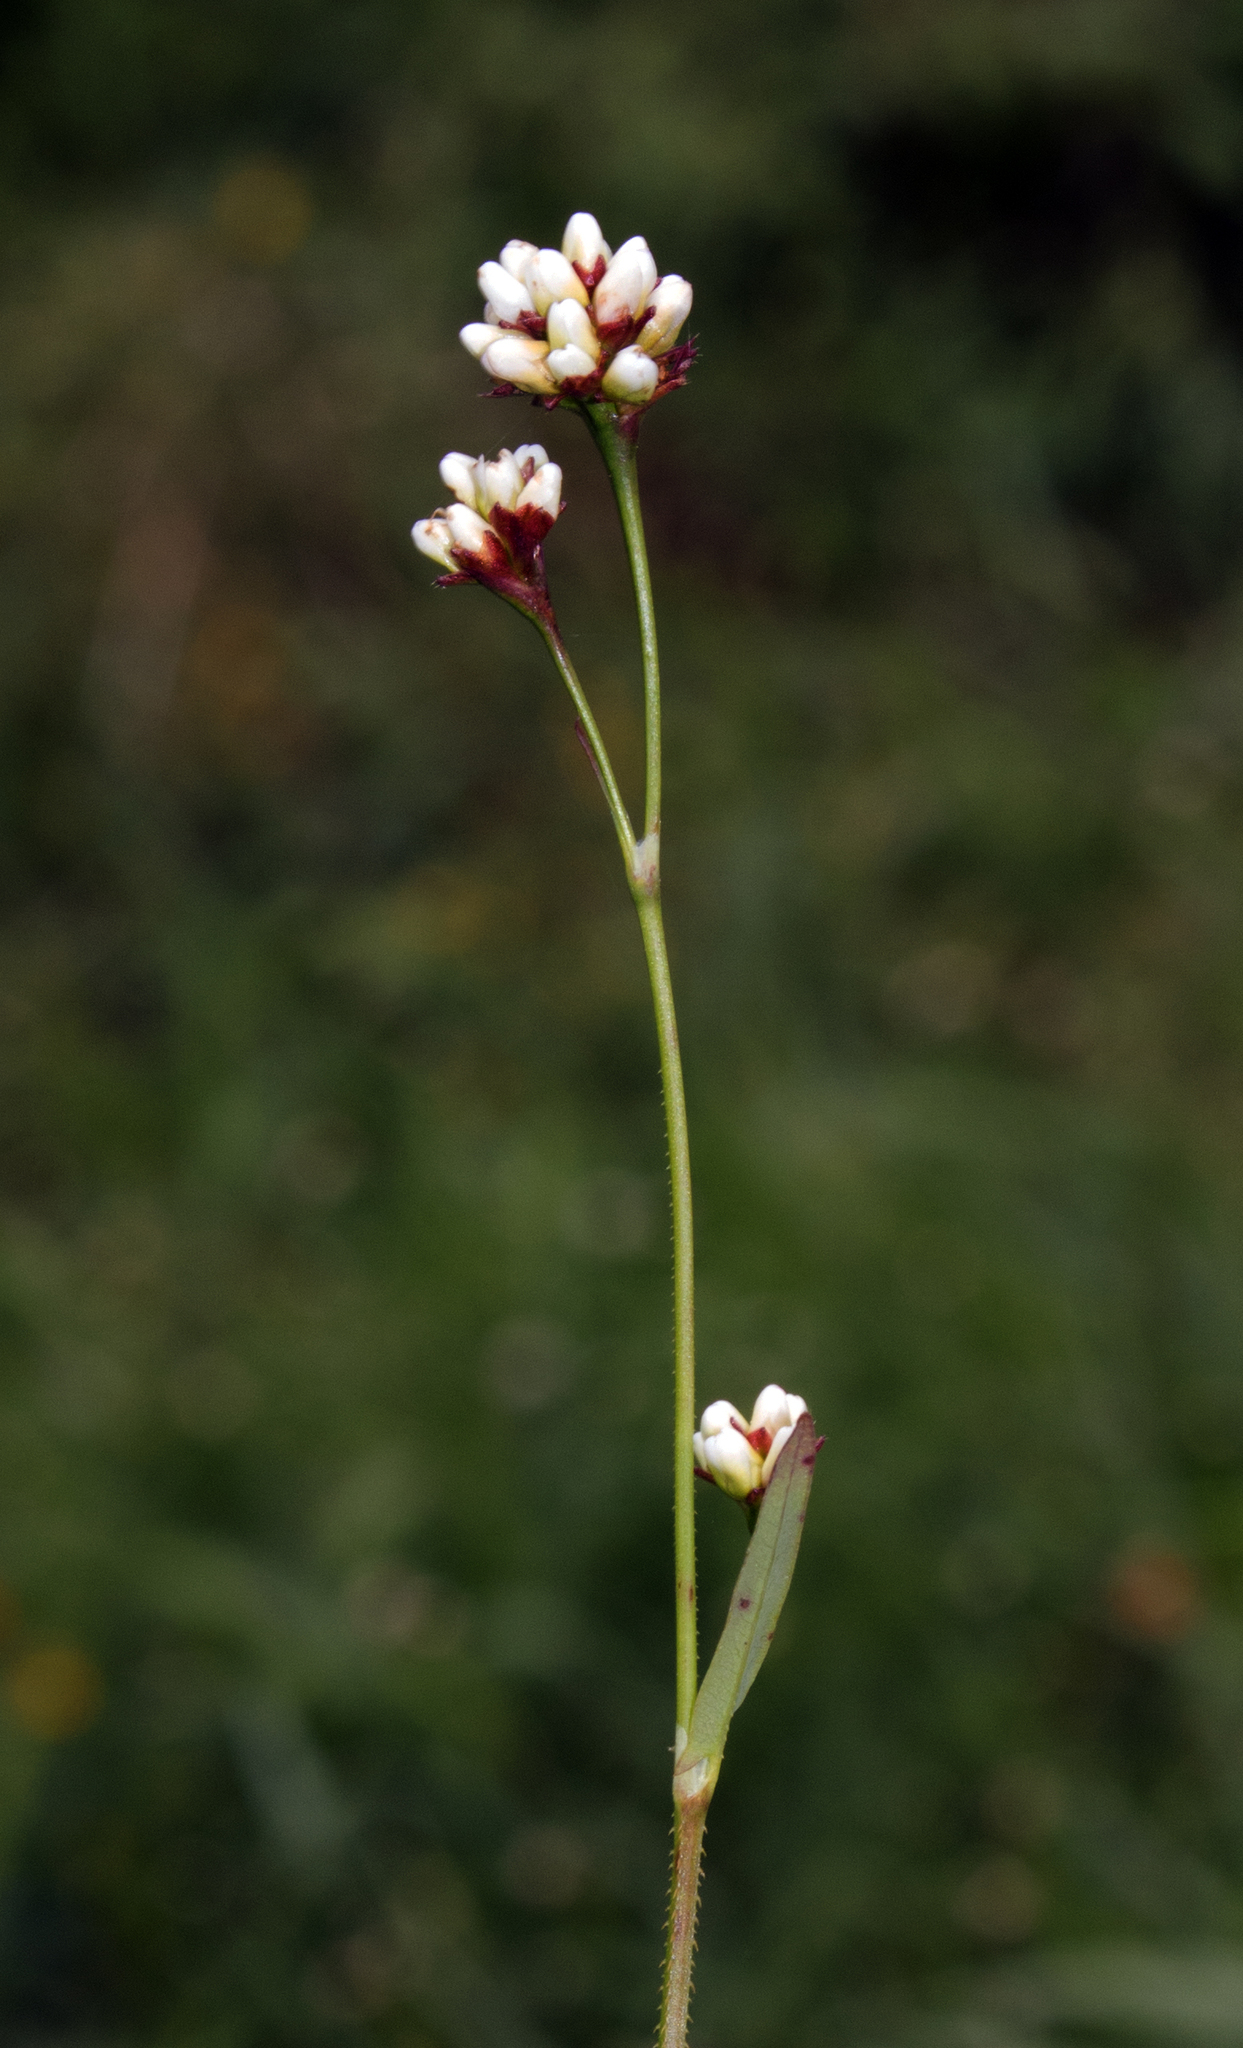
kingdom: Plantae
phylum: Tracheophyta
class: Magnoliopsida
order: Caryophyllales
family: Polygonaceae
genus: Persicaria
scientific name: Persicaria sagittata
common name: American tearthumb
